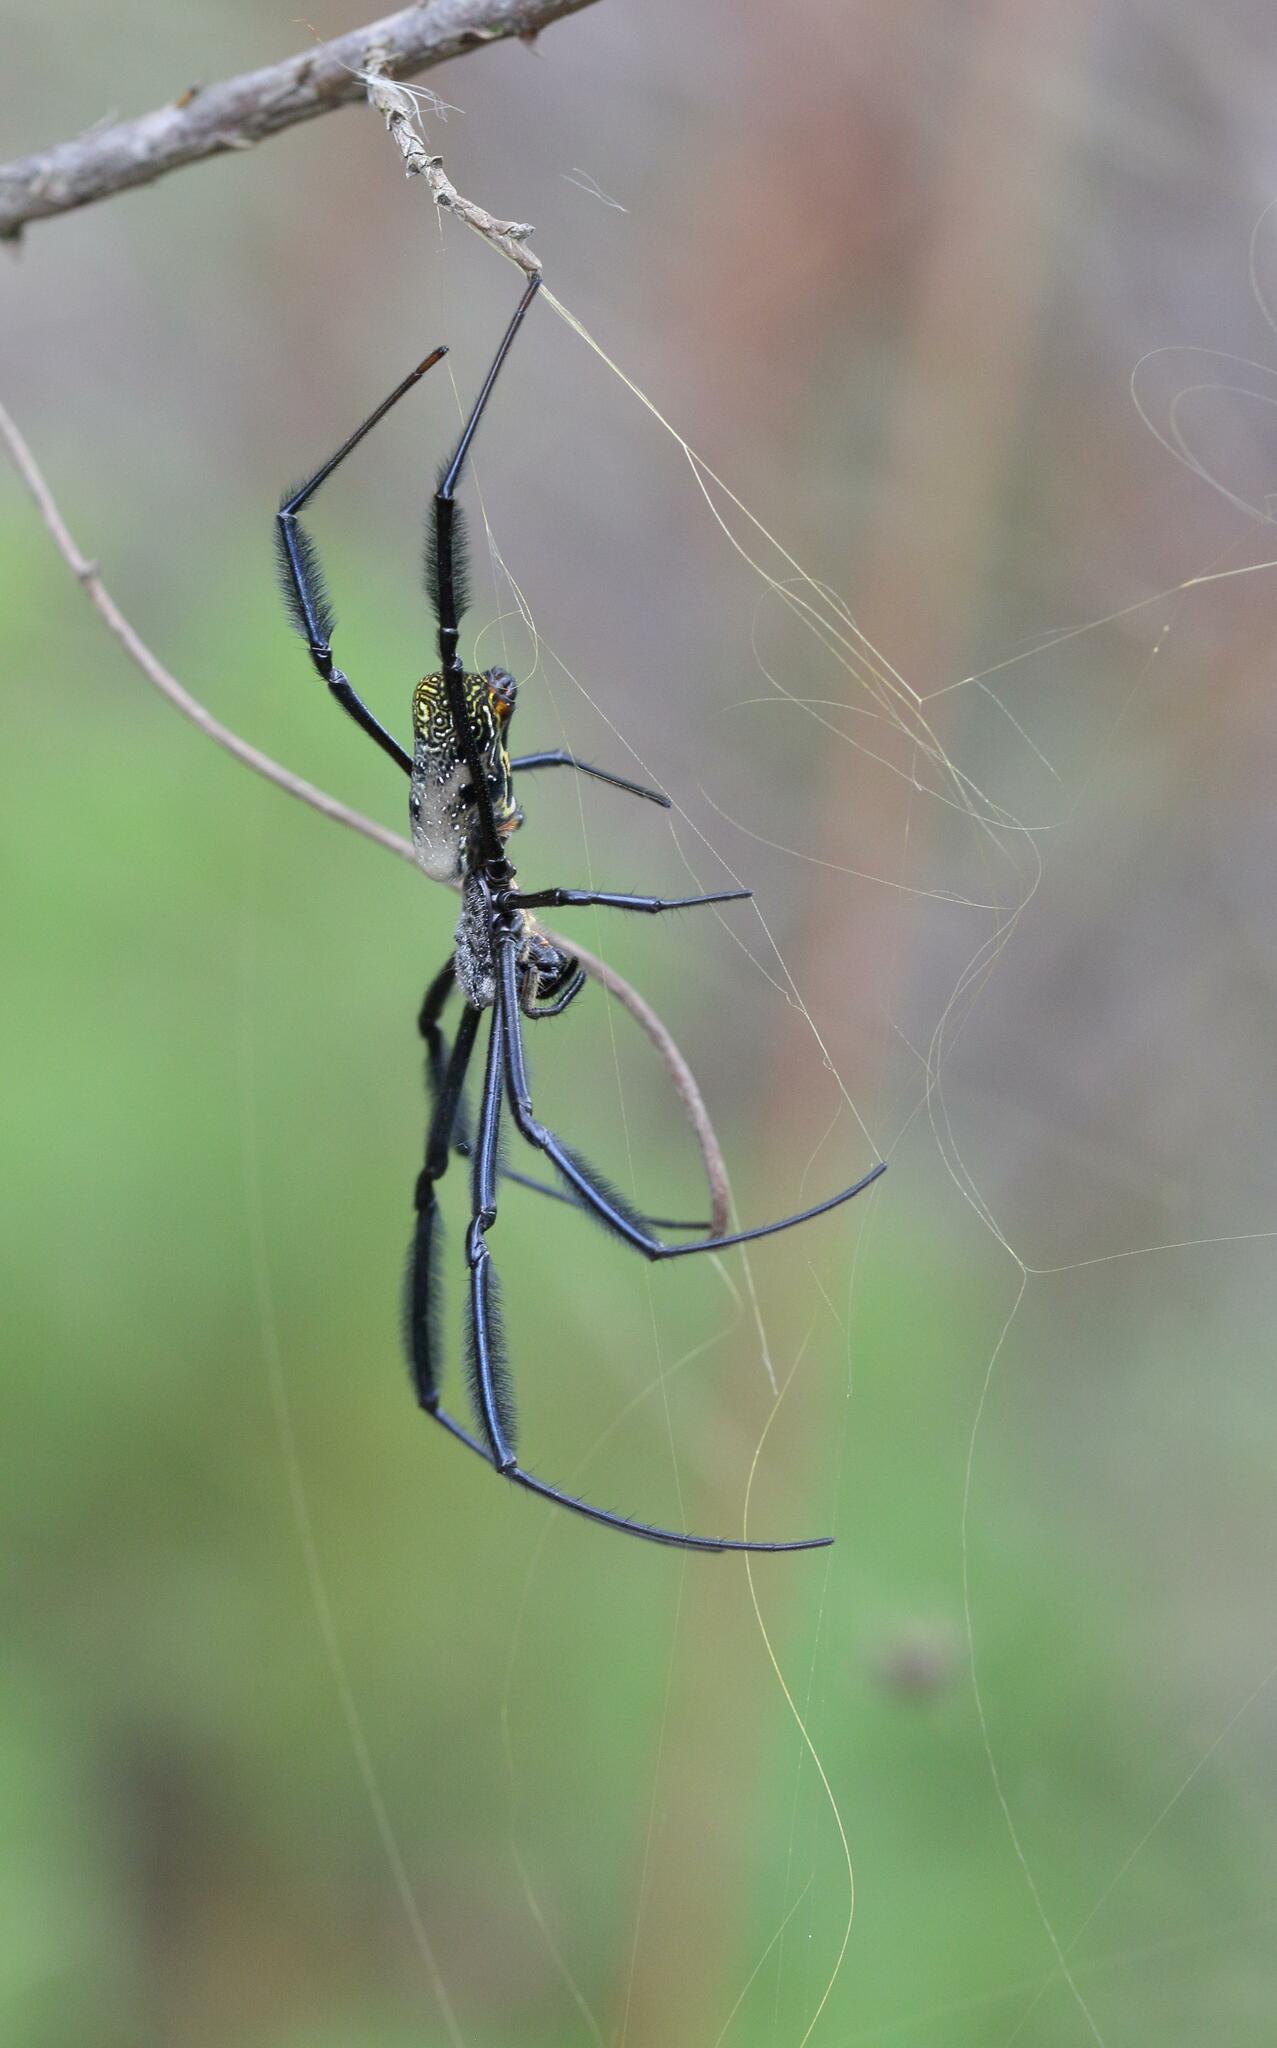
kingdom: Animalia
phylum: Arthropoda
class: Arachnida
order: Araneae
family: Araneidae
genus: Trichonephila
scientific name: Trichonephila fenestrata
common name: Hairy golden orb weaver
